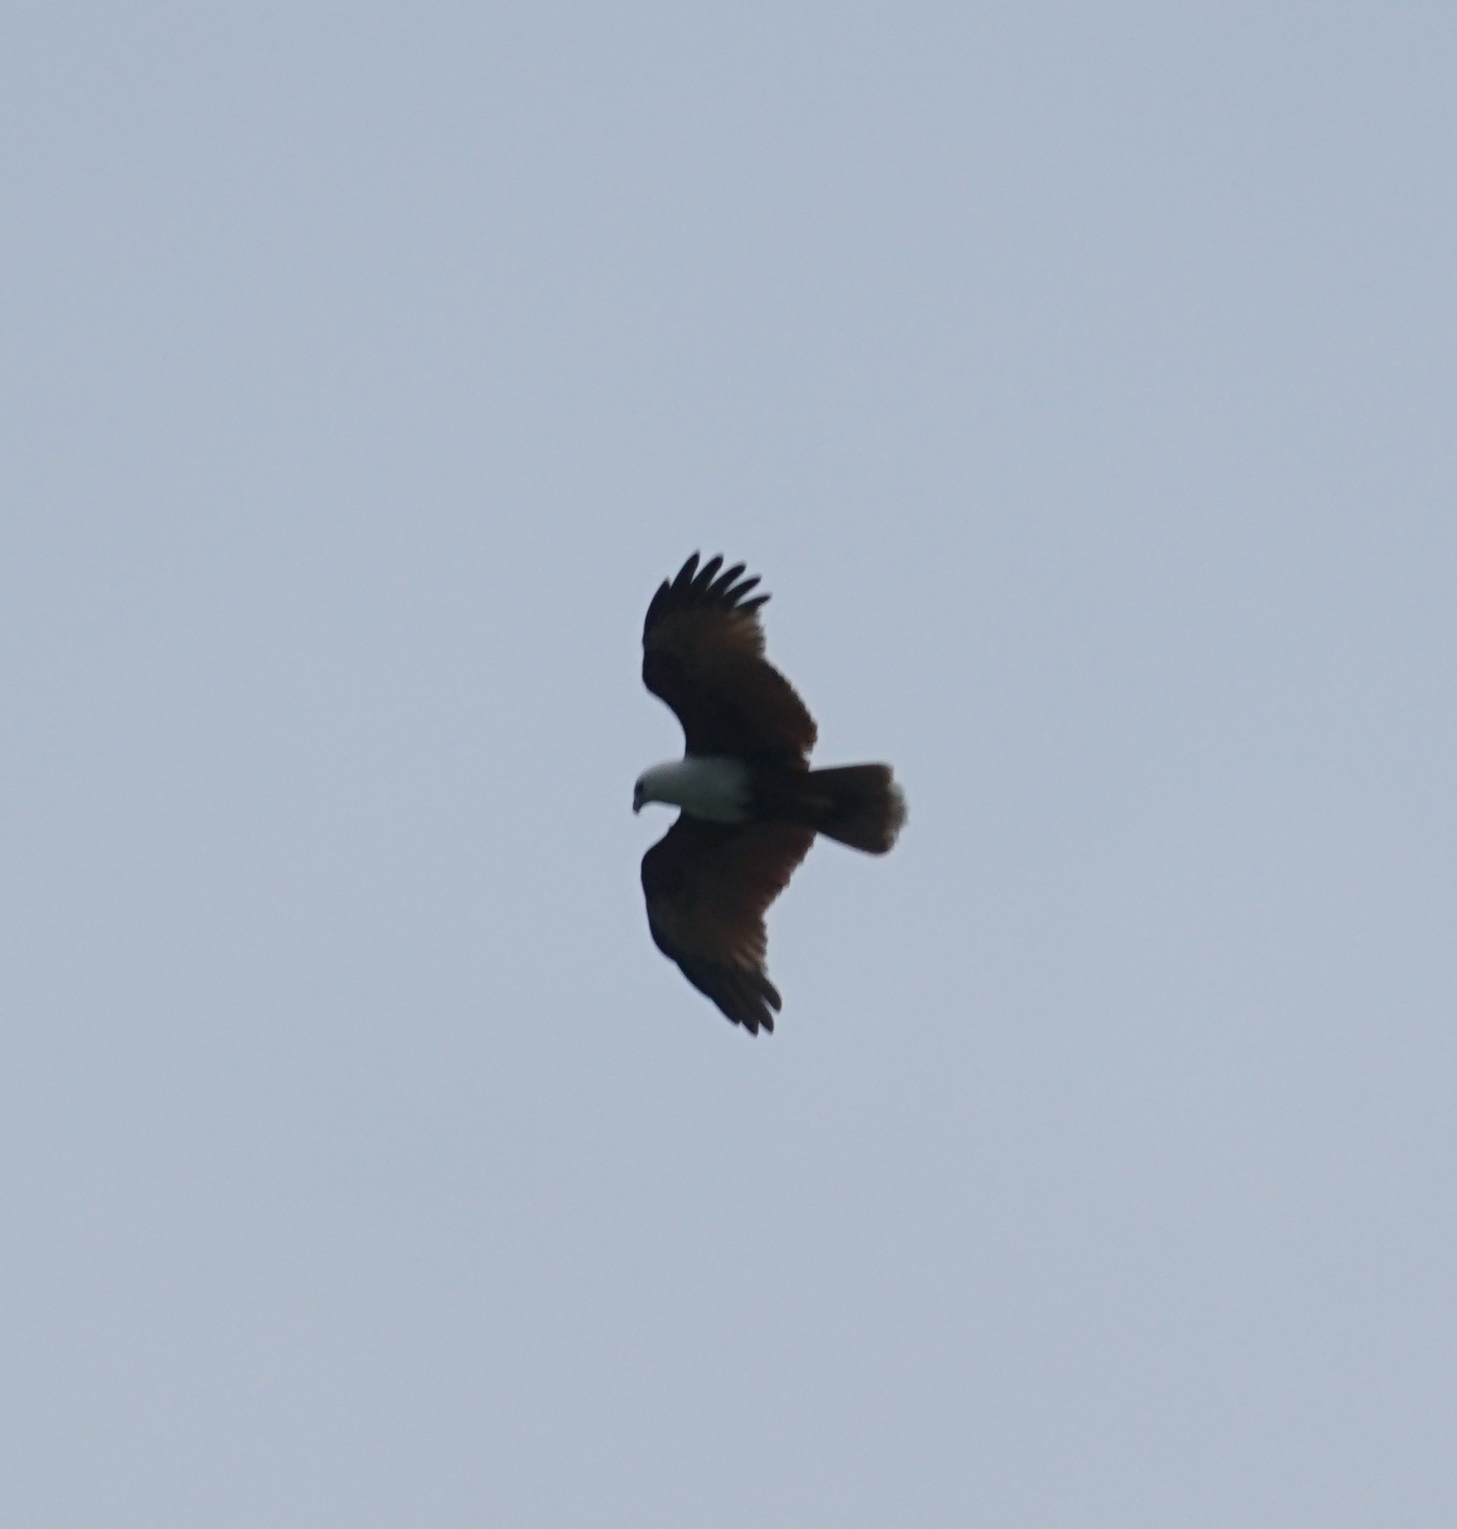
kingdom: Animalia
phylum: Chordata
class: Aves
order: Accipitriformes
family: Accipitridae
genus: Haliastur
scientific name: Haliastur indus
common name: Brahminy kite
